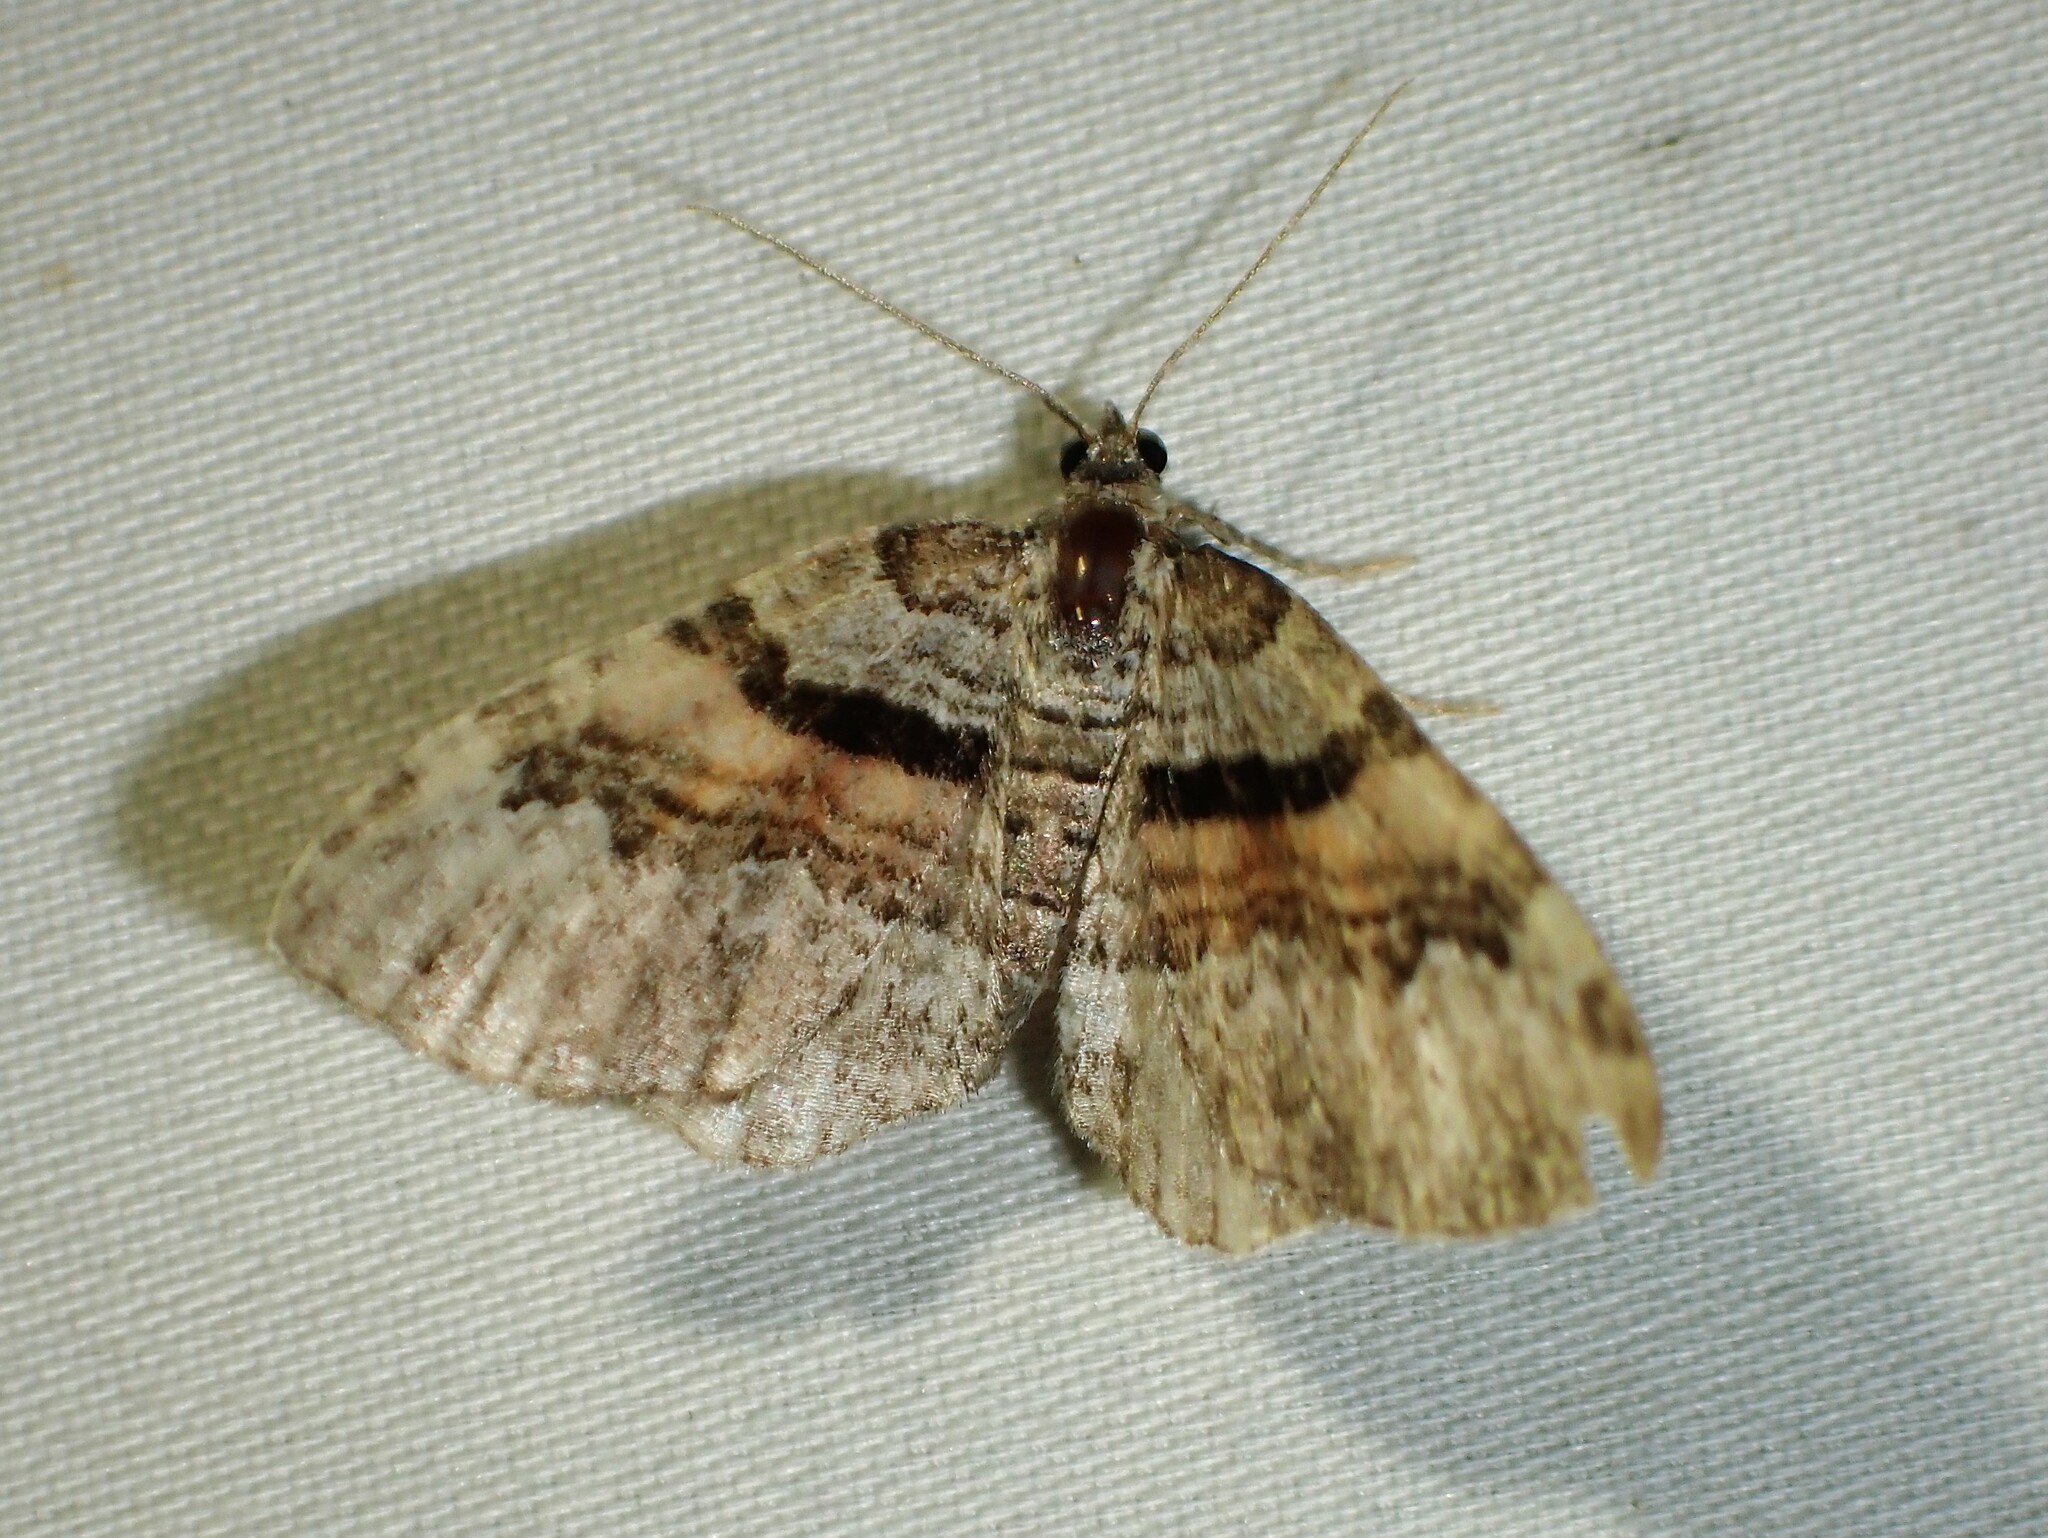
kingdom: Animalia
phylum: Arthropoda
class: Insecta
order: Lepidoptera
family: Geometridae
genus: Xanthorhoe
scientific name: Xanthorhoe packardata
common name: Packard's carpet
